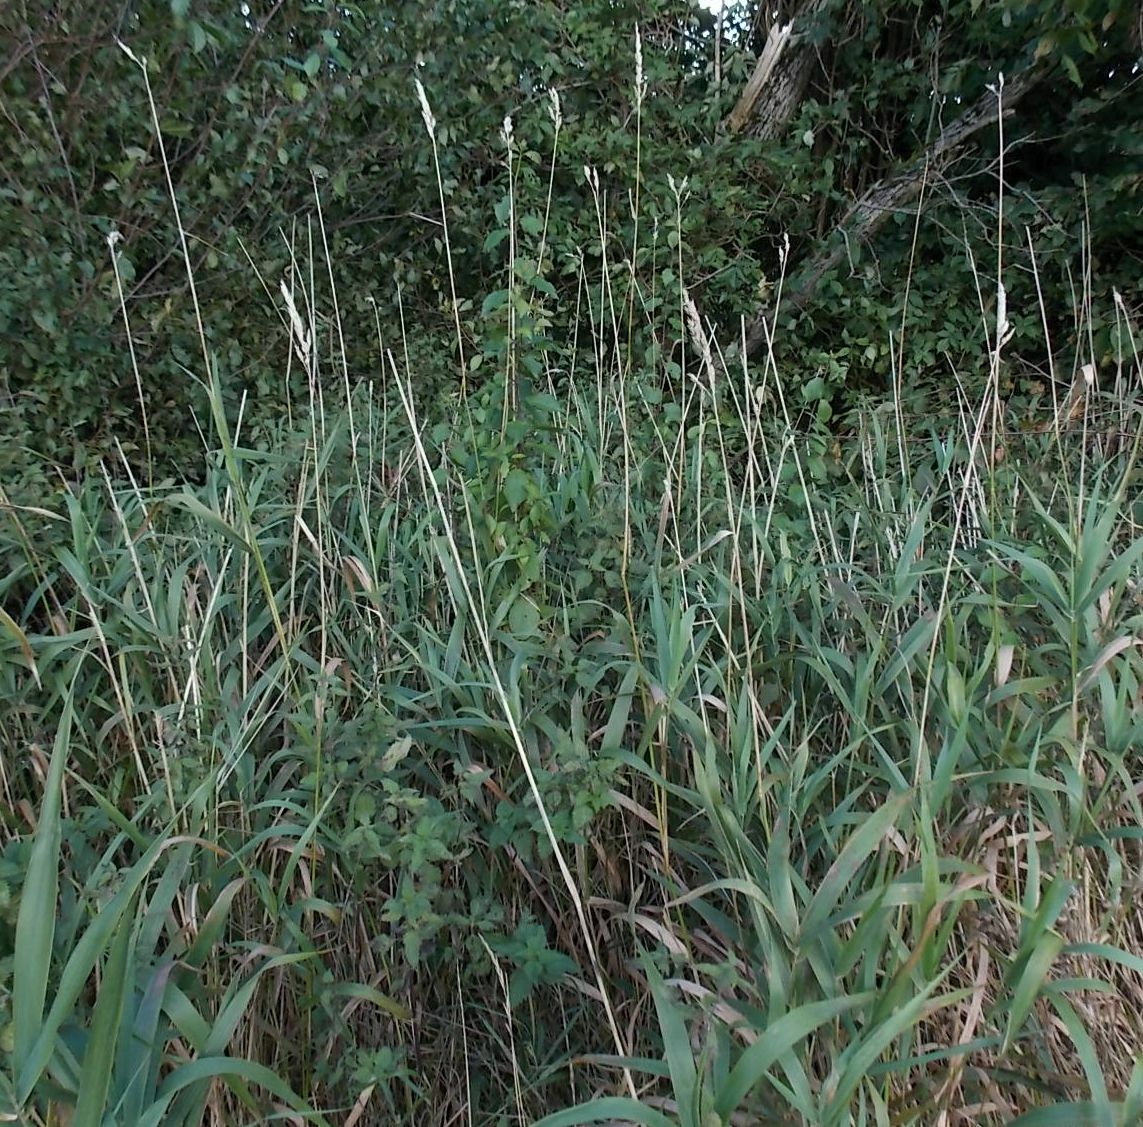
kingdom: Plantae
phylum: Tracheophyta
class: Liliopsida
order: Poales
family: Poaceae
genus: Phalaris
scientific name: Phalaris arundinacea
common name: Reed canary-grass
